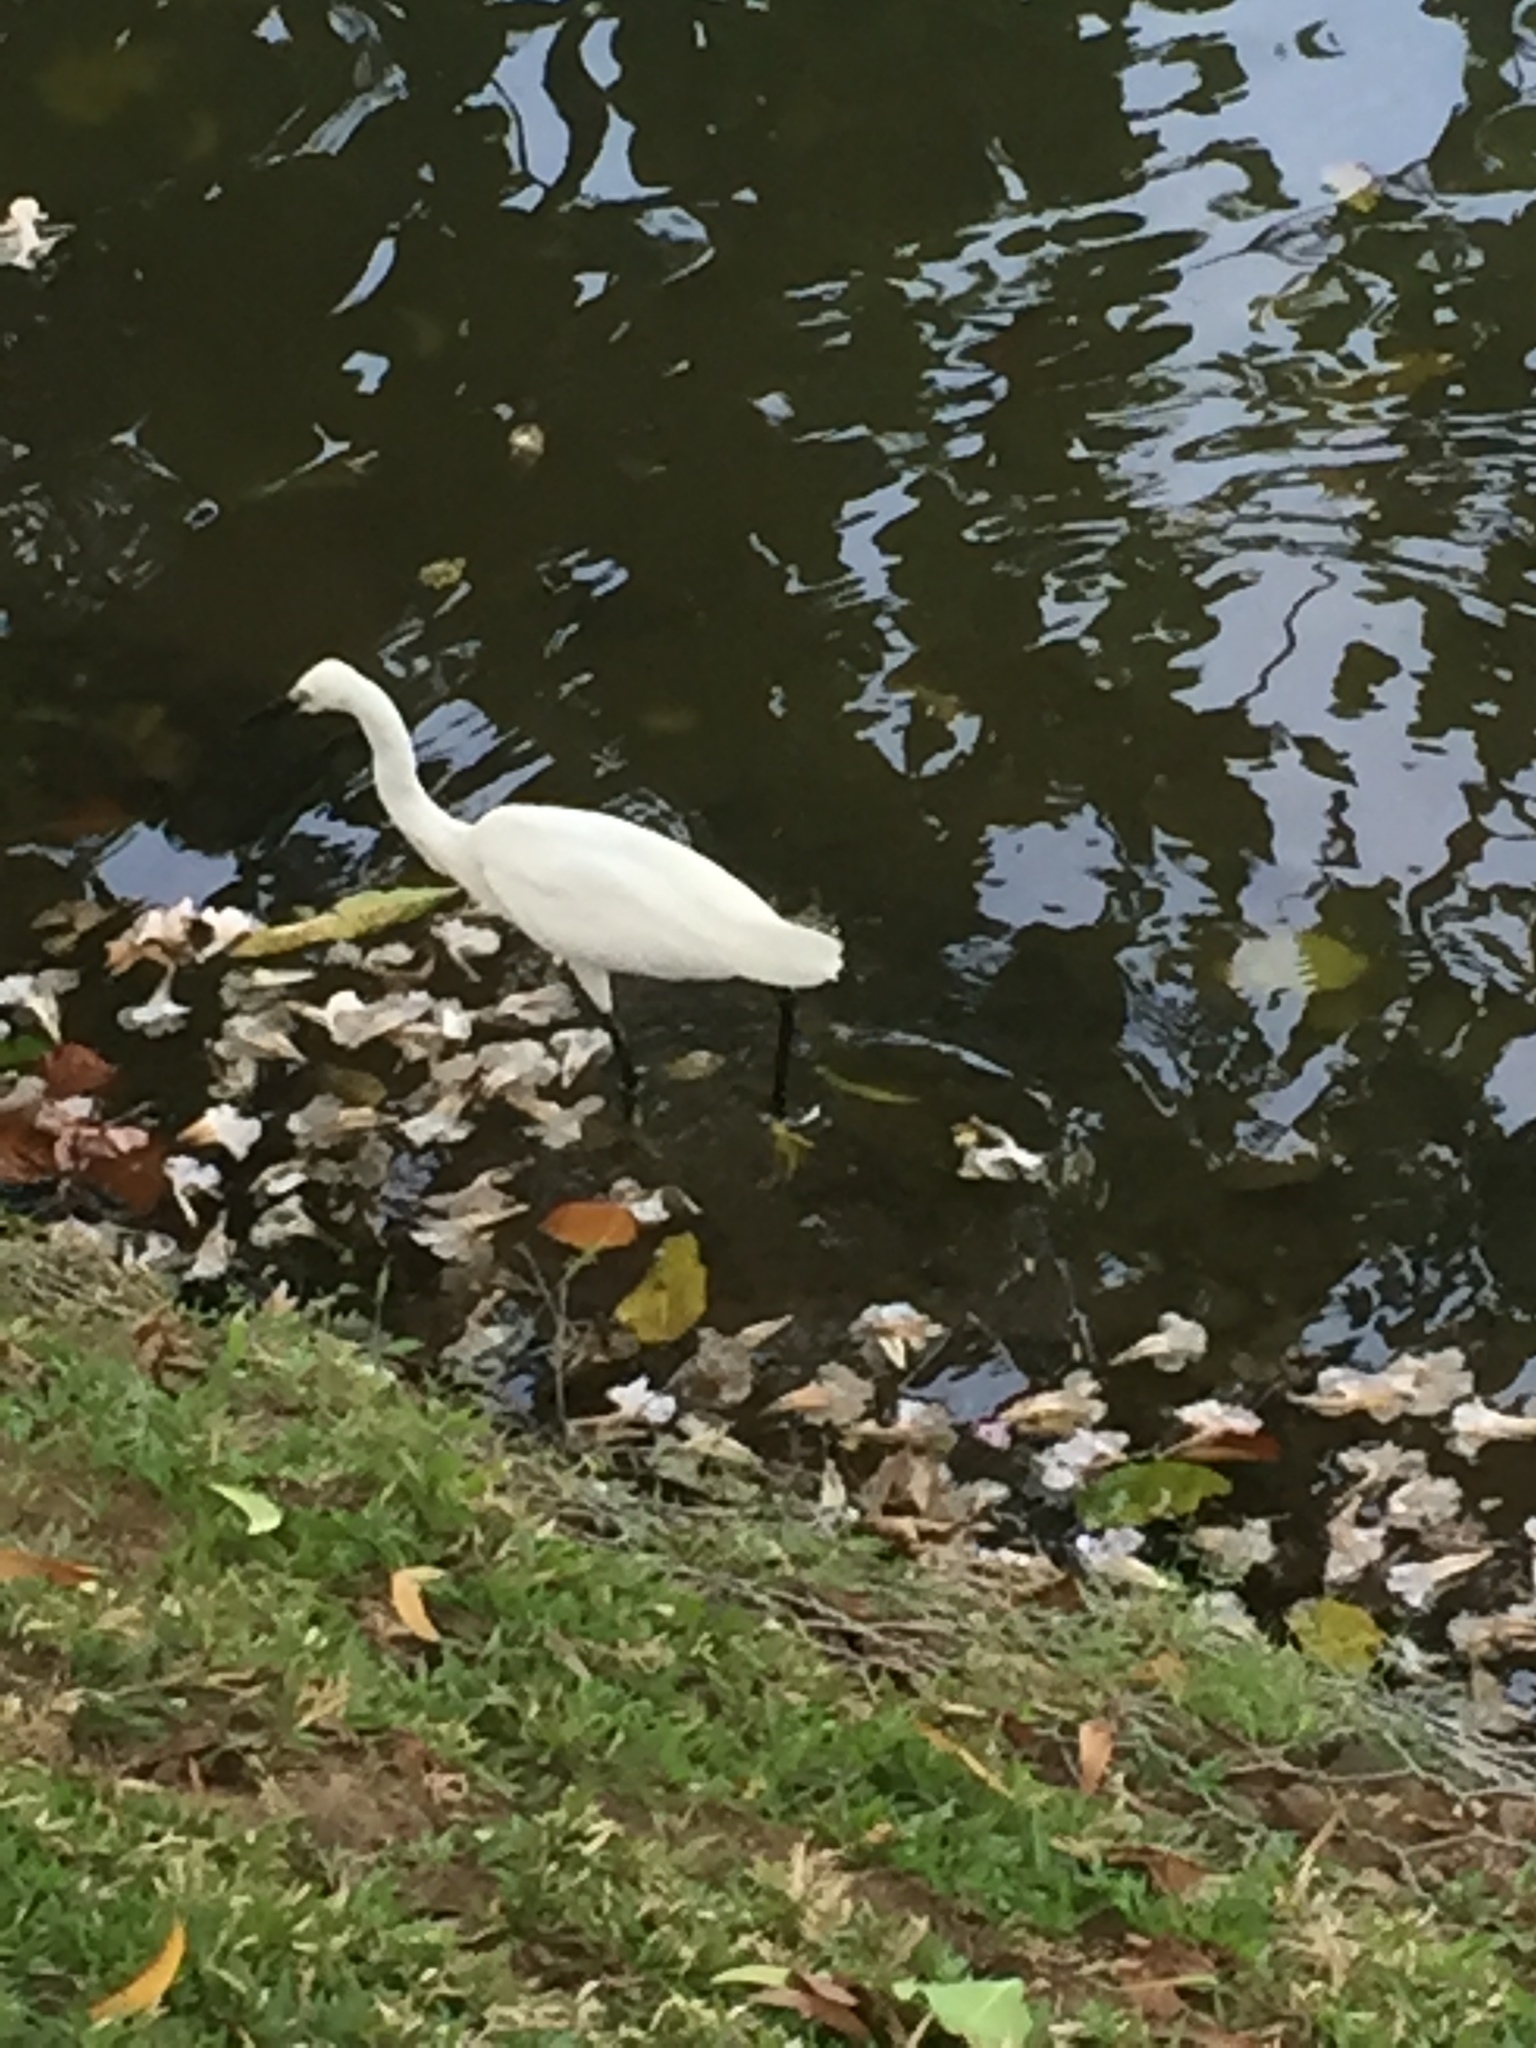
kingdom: Animalia
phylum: Chordata
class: Aves
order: Pelecaniformes
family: Ardeidae
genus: Egretta
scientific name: Egretta garzetta
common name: Little egret
